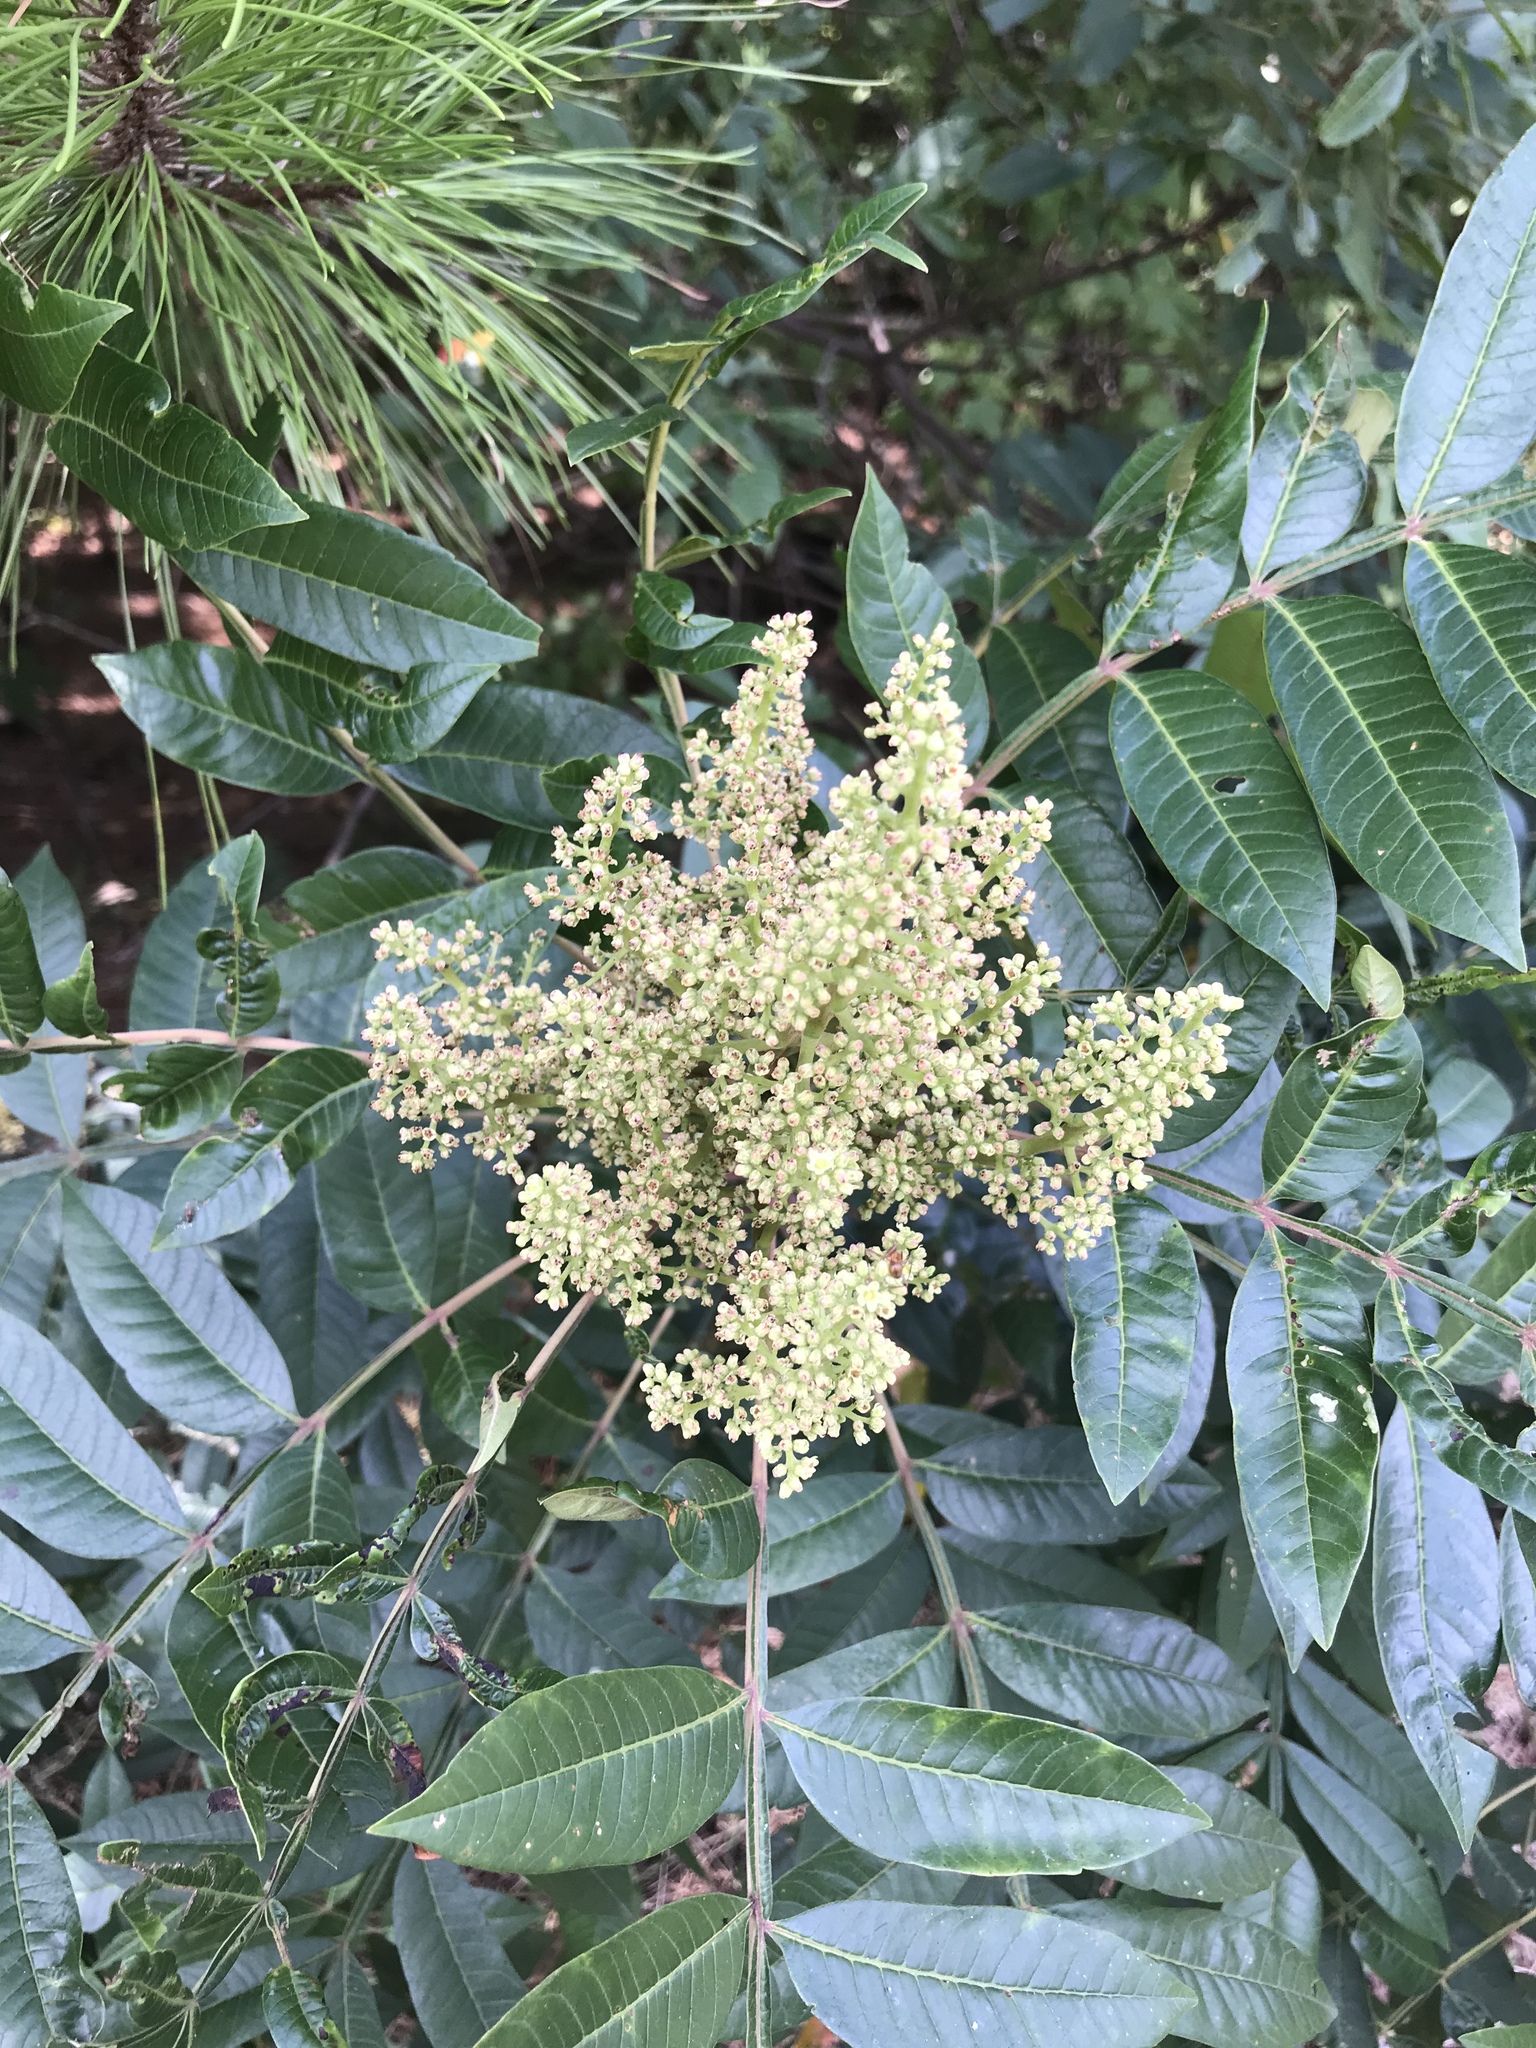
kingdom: Plantae
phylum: Tracheophyta
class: Magnoliopsida
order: Sapindales
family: Anacardiaceae
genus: Rhus
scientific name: Rhus copallina
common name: Shining sumac
